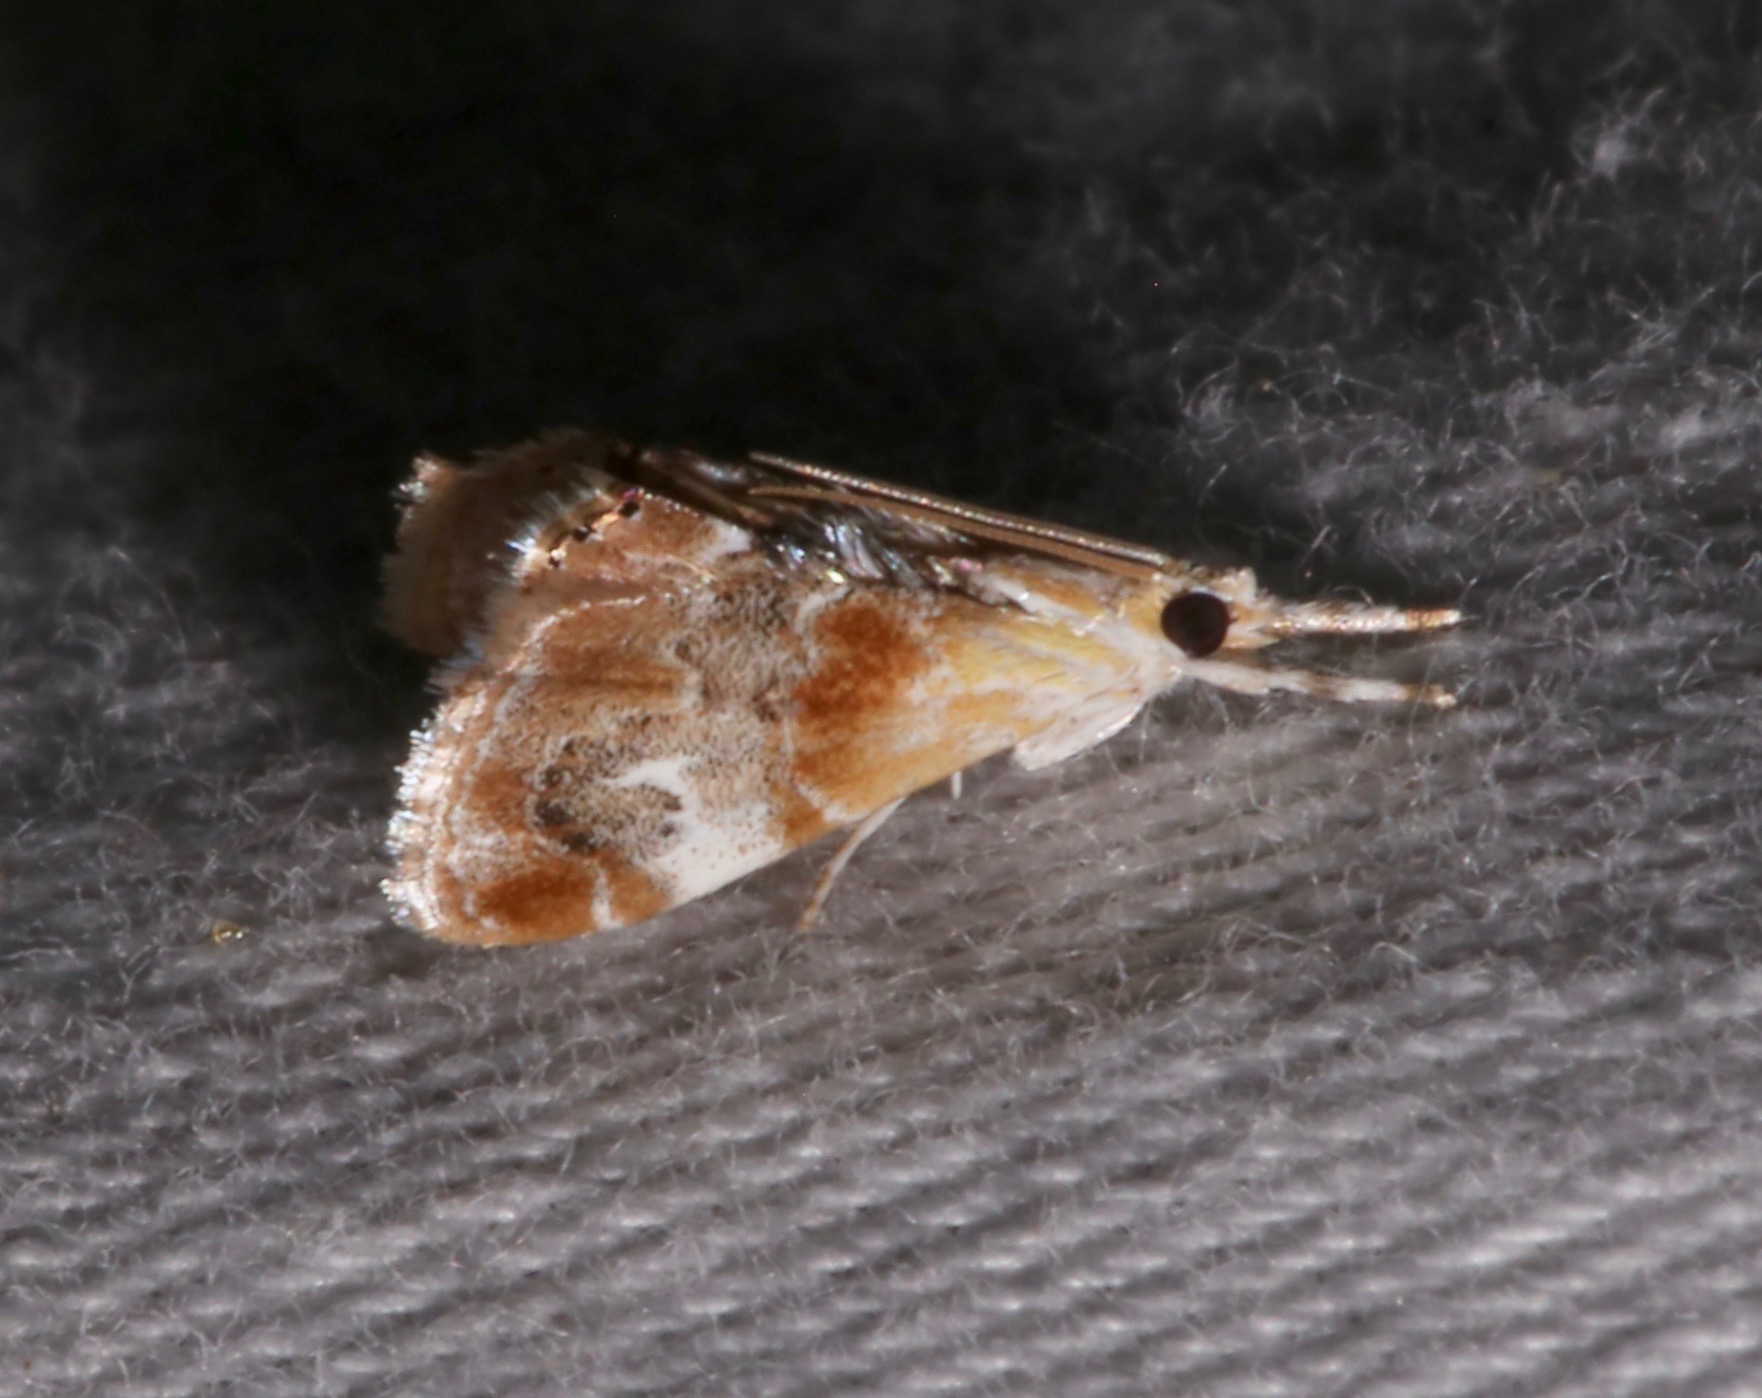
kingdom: Animalia
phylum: Arthropoda
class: Insecta
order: Lepidoptera
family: Crambidae
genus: Dicymolomia
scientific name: Dicymolomia julianalis
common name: Julia's dicymolomia moth
